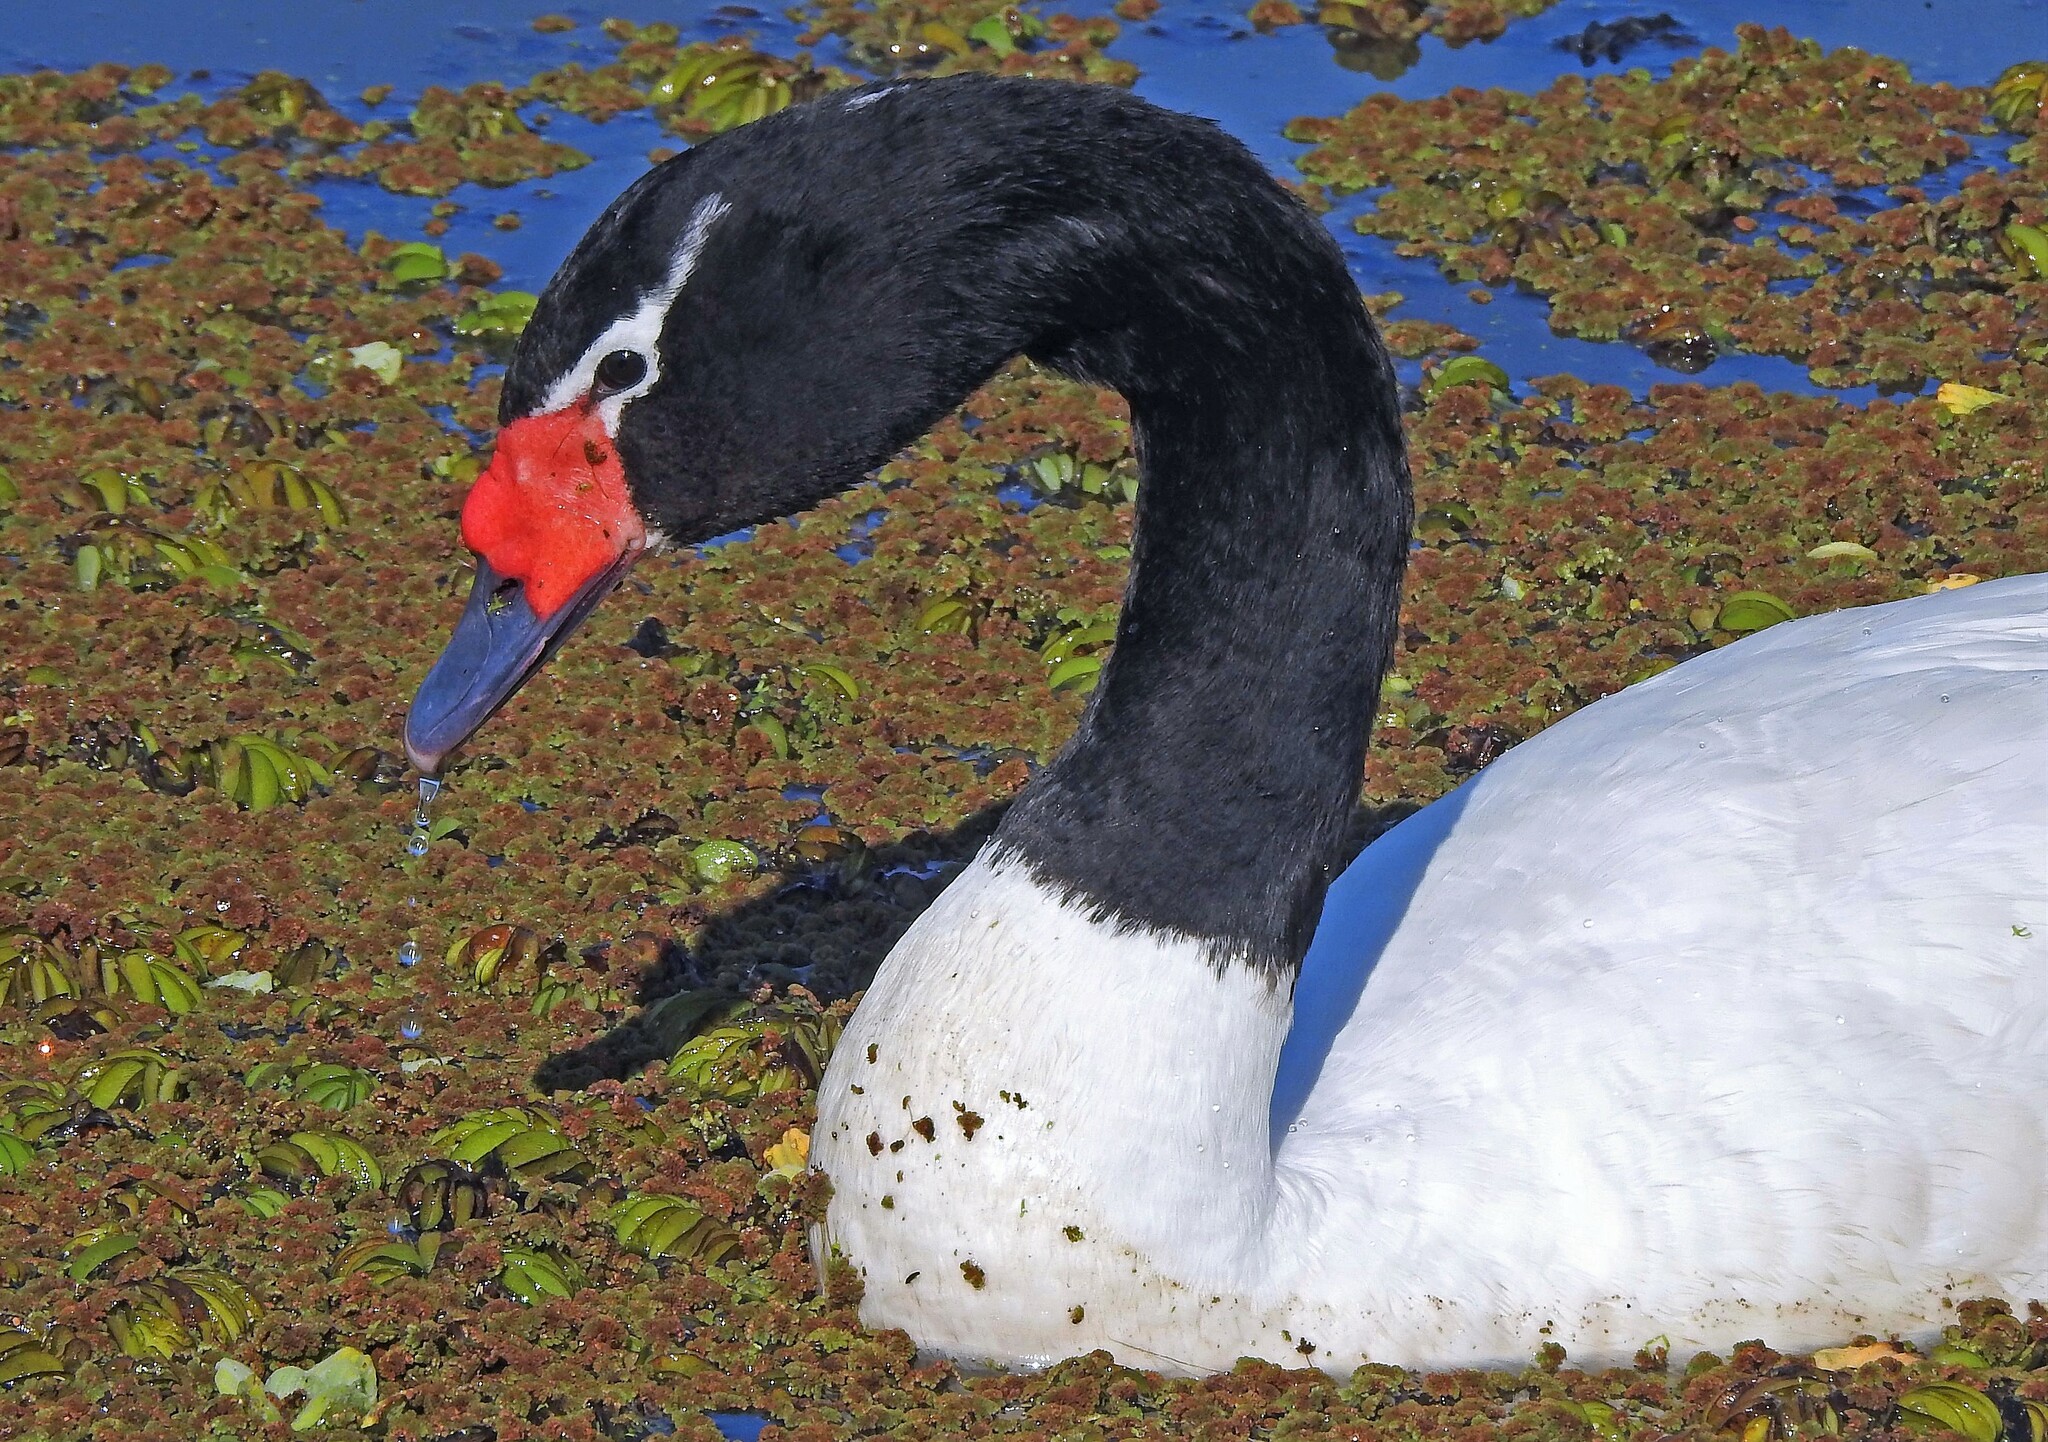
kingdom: Animalia
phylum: Chordata
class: Aves
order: Anseriformes
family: Anatidae
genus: Cygnus
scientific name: Cygnus melancoryphus
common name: Black-necked swan
